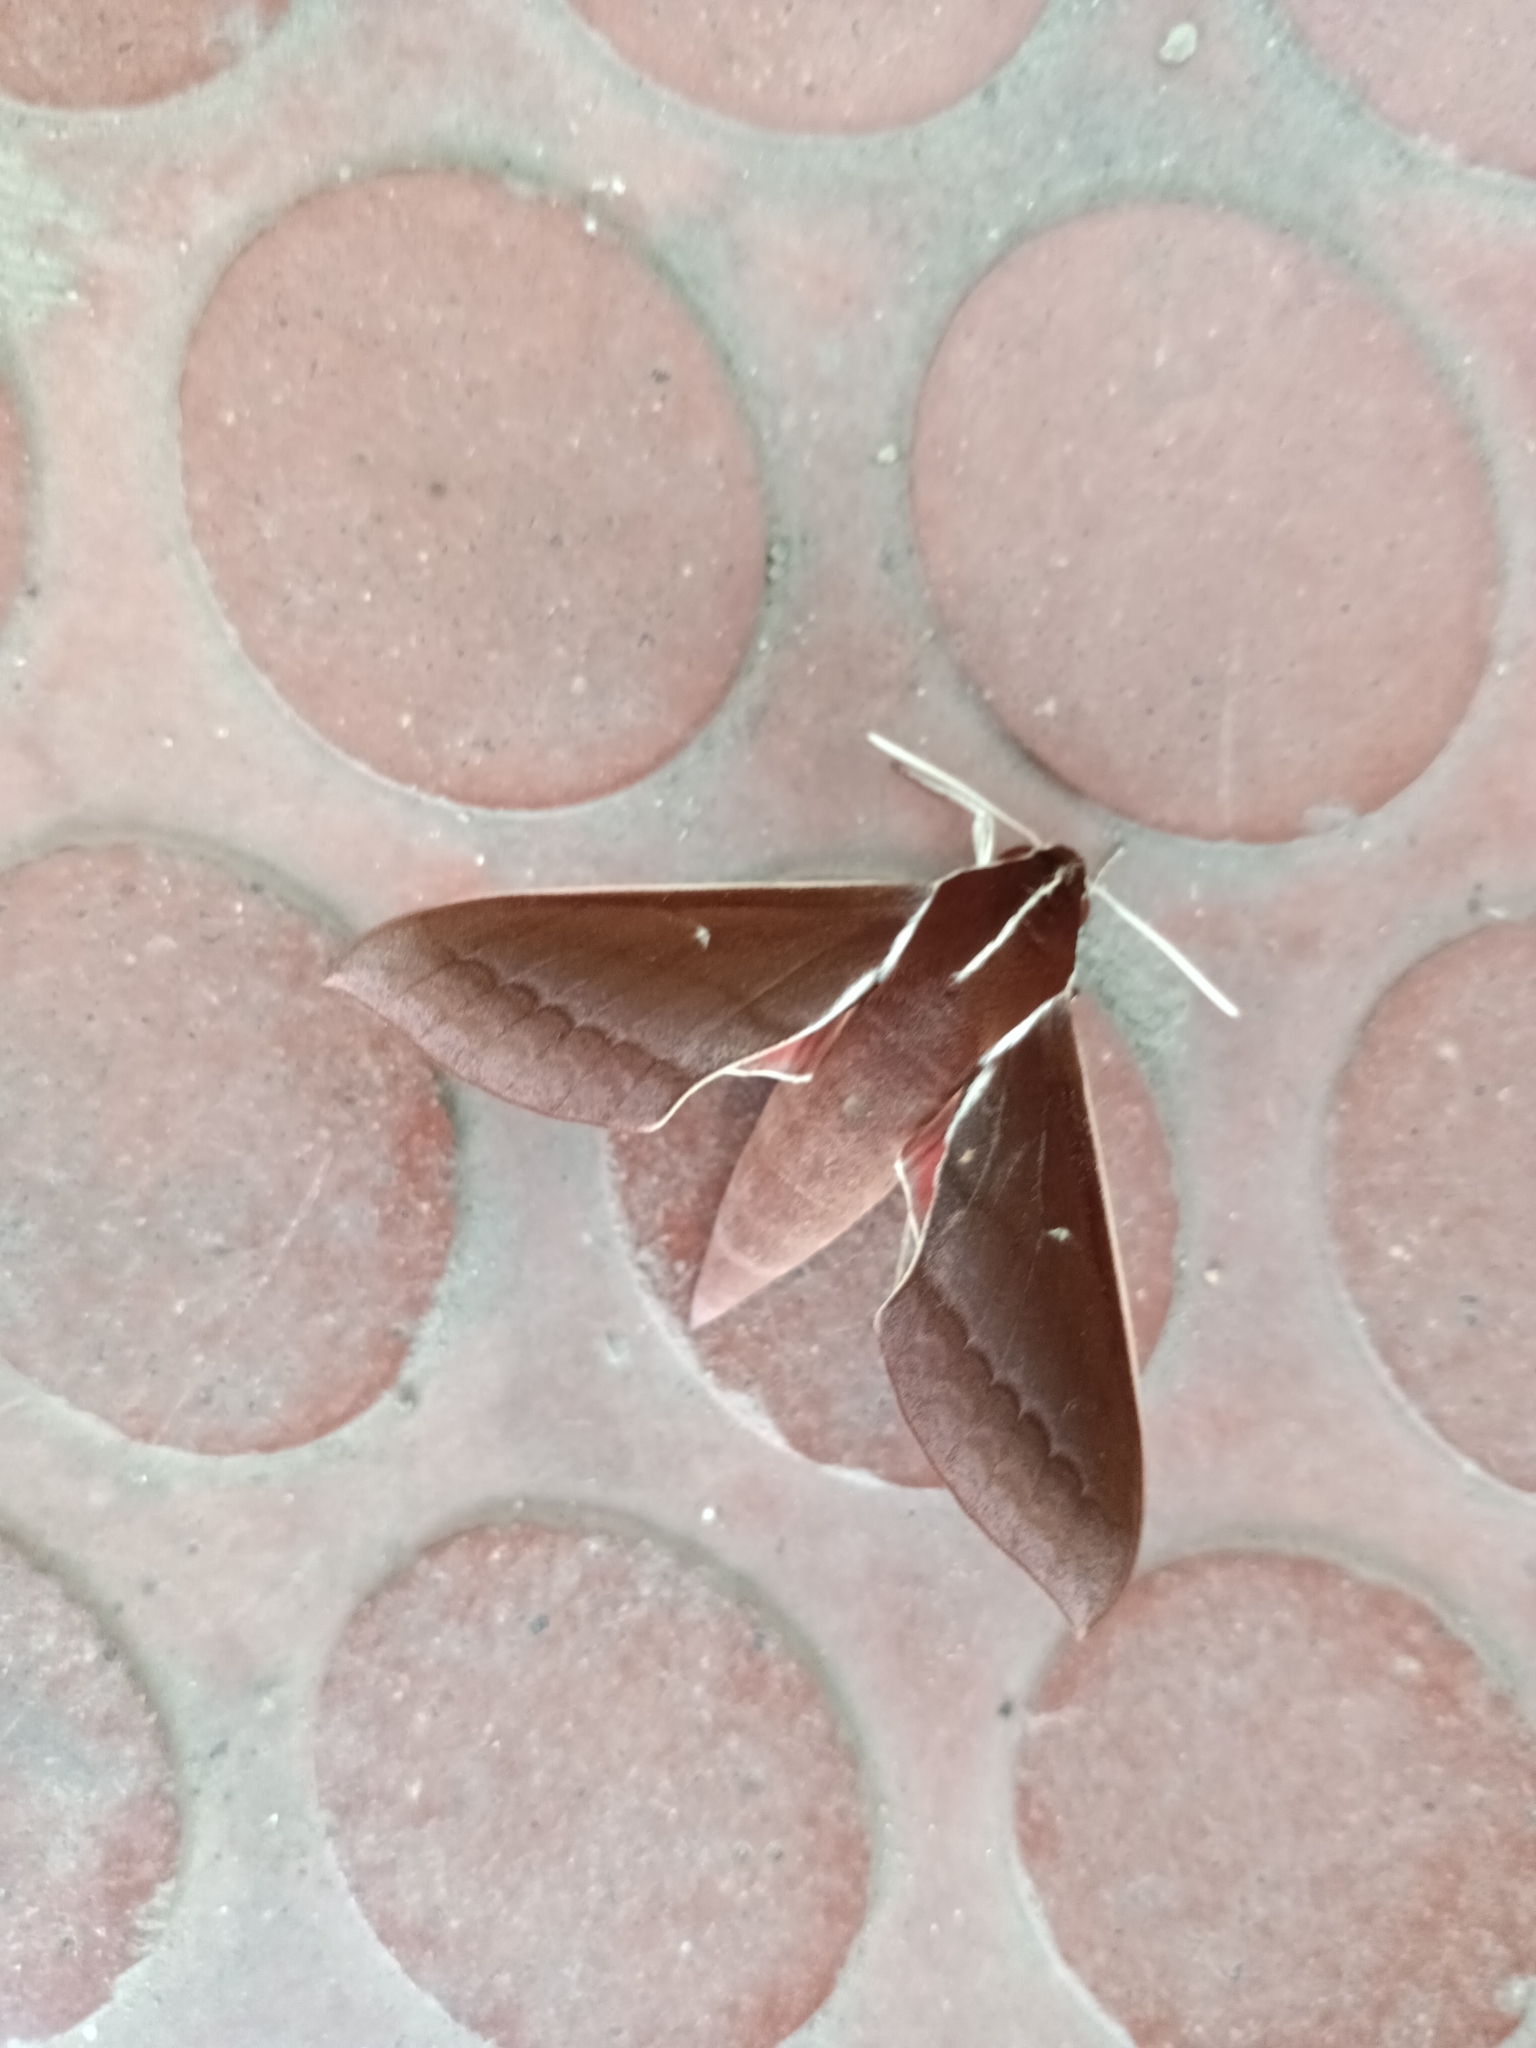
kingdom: Animalia
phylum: Arthropoda
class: Insecta
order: Lepidoptera
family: Sphingidae
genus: Theretra
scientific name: Theretra pallicosta
